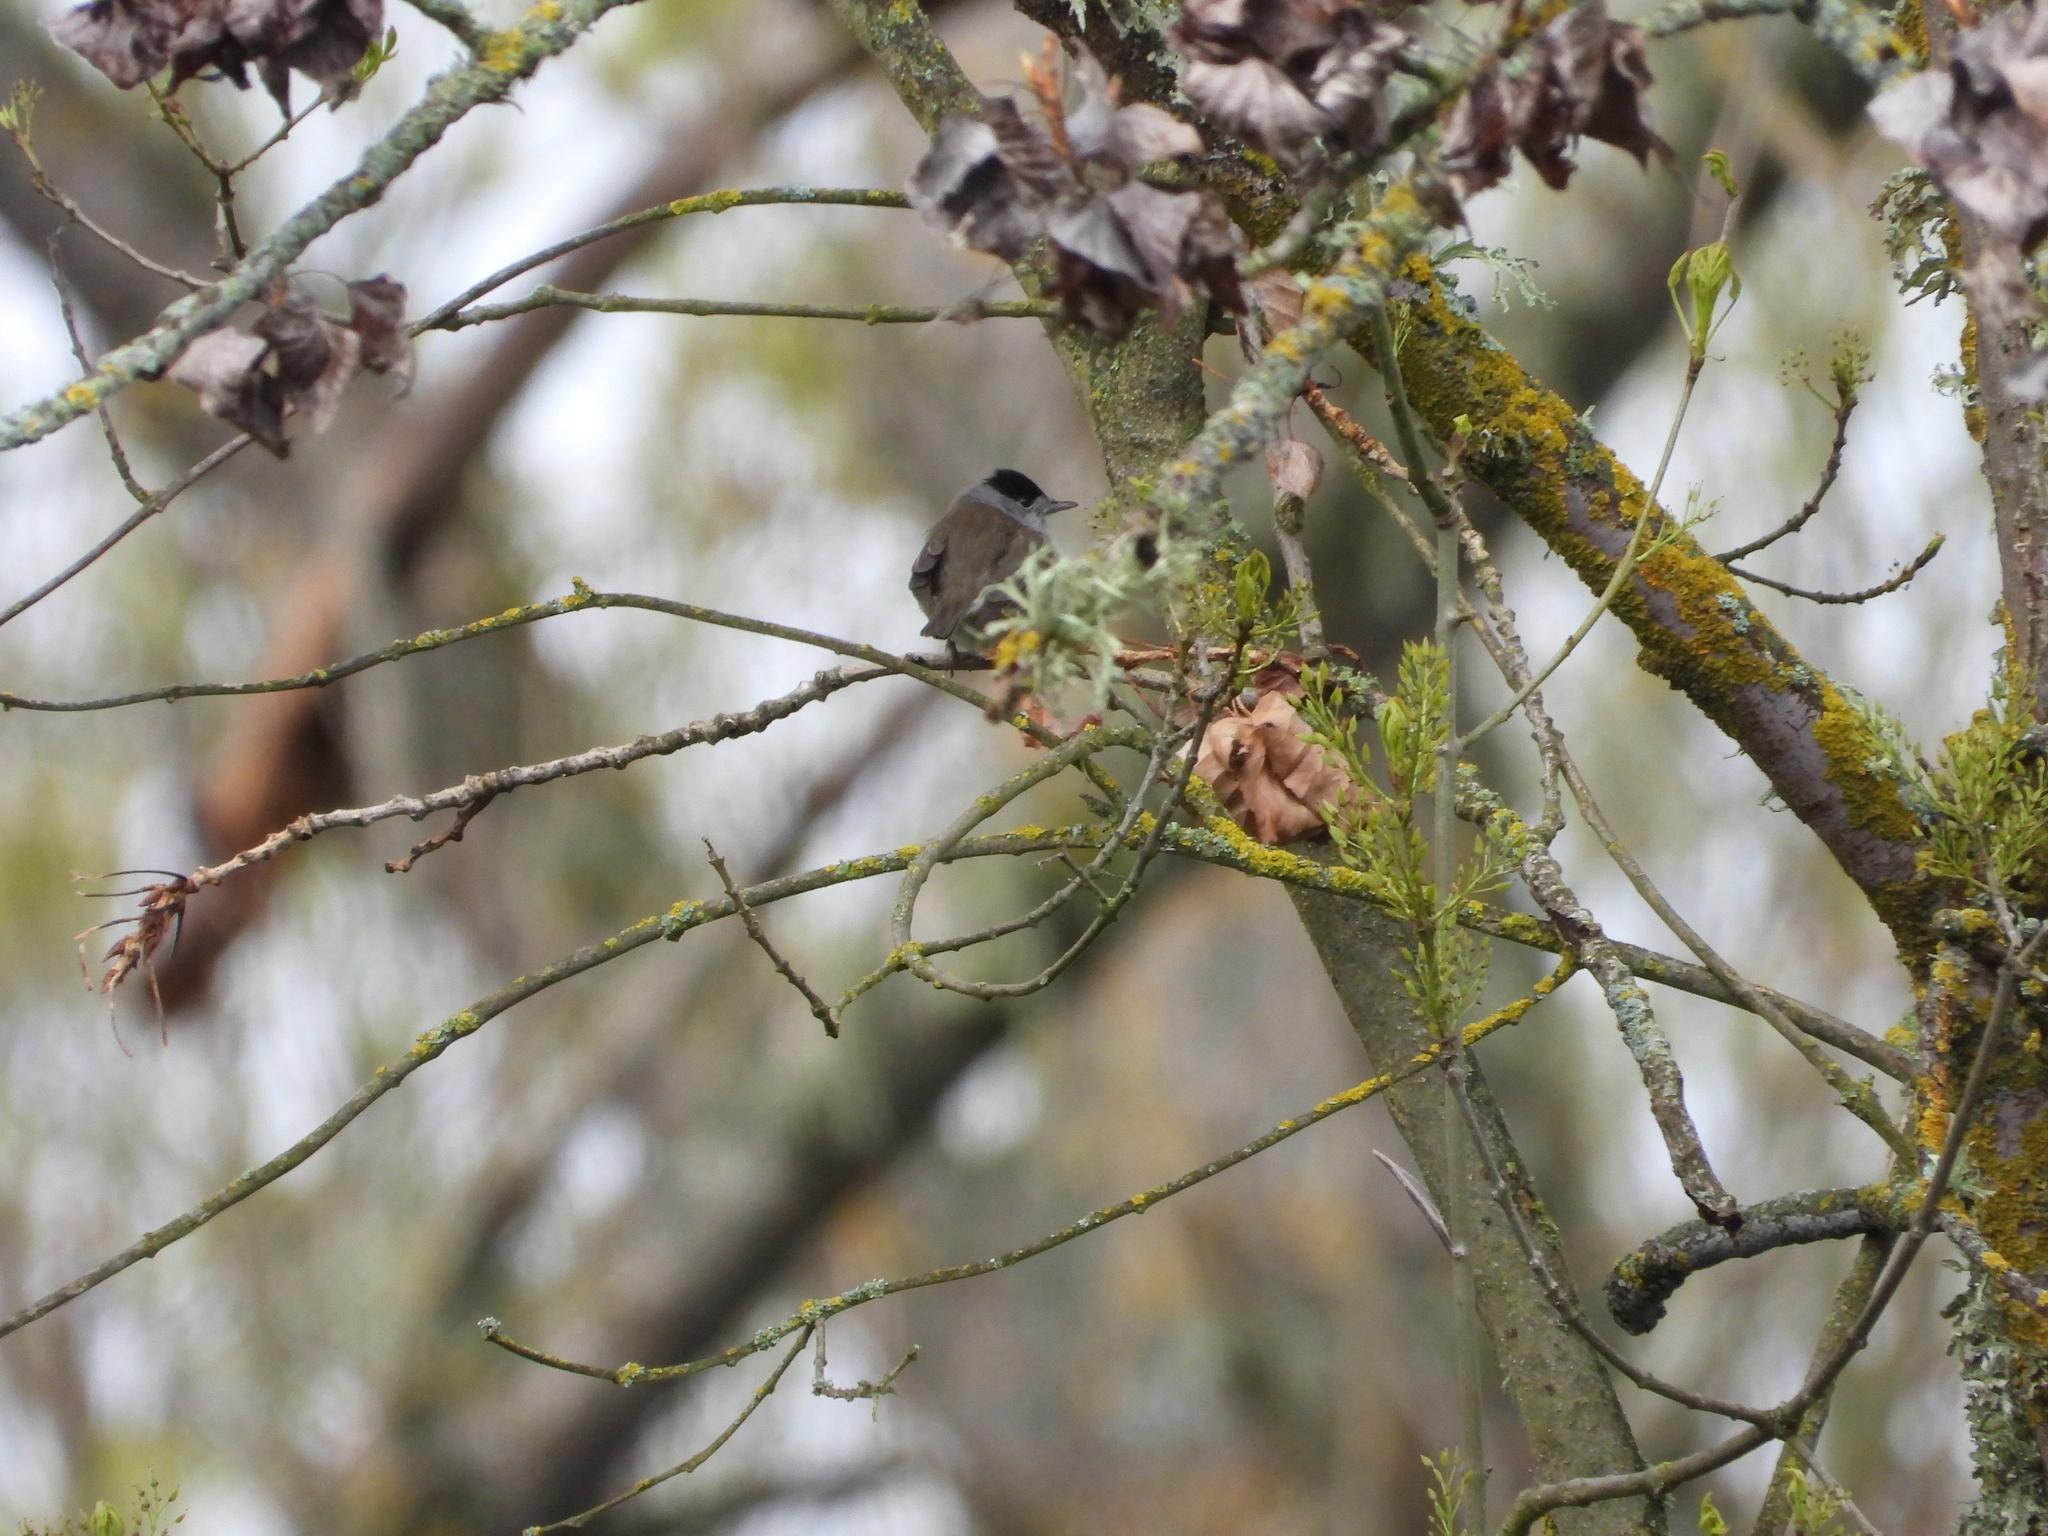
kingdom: Animalia
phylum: Chordata
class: Aves
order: Passeriformes
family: Sylviidae
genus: Sylvia
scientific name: Sylvia atricapilla
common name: Eurasian blackcap
